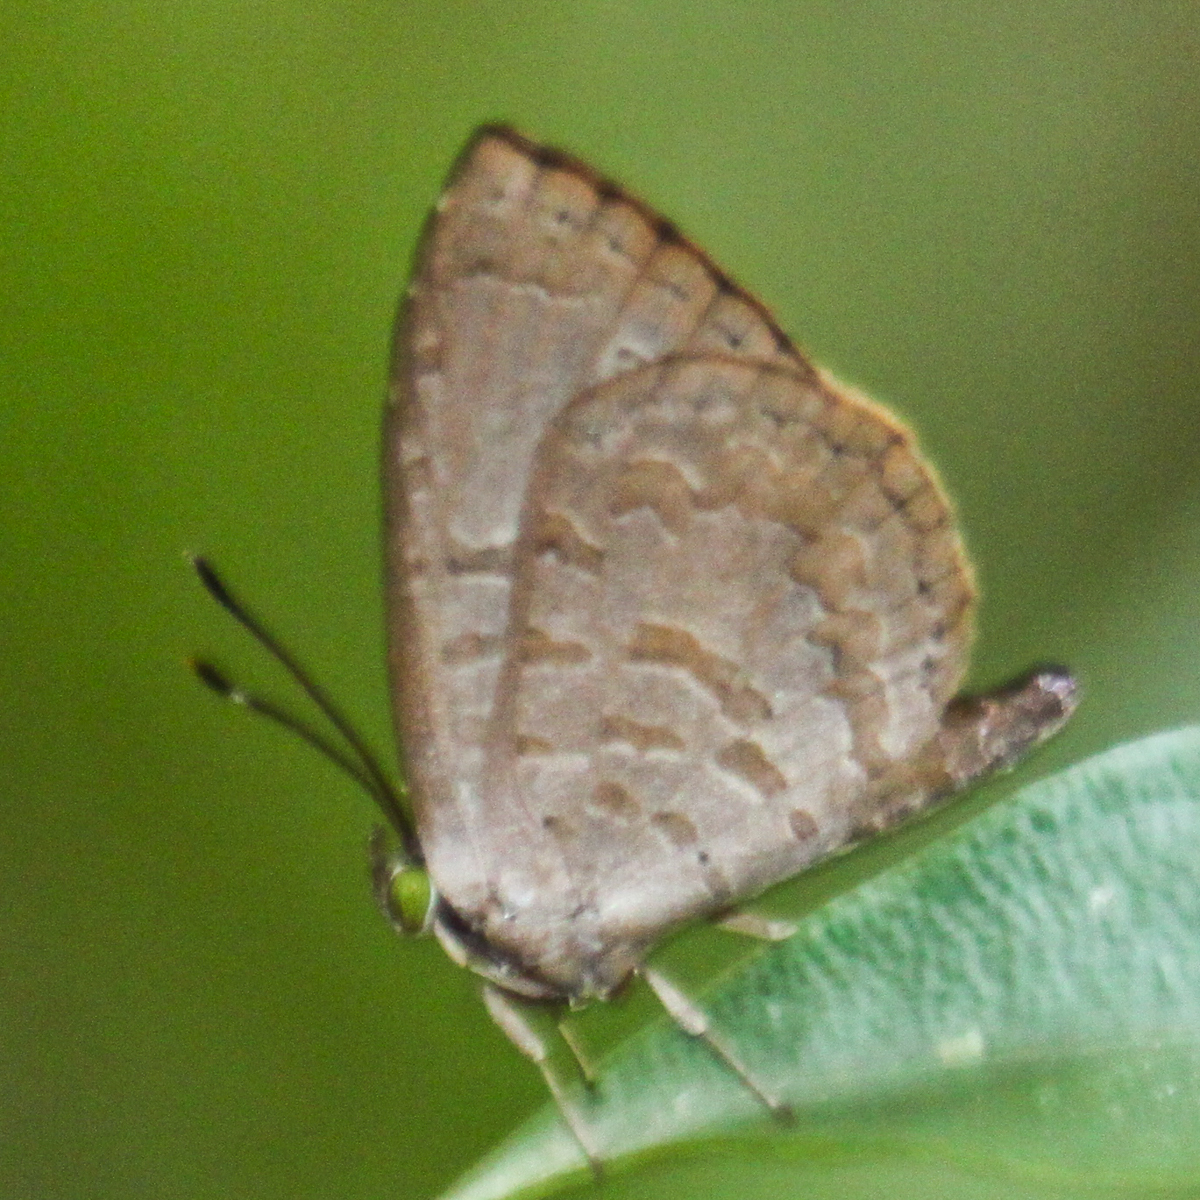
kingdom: Animalia
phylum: Arthropoda
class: Insecta
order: Lepidoptera
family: Lycaenidae
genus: Miletus
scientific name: Miletus chinensis
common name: Common brownie
